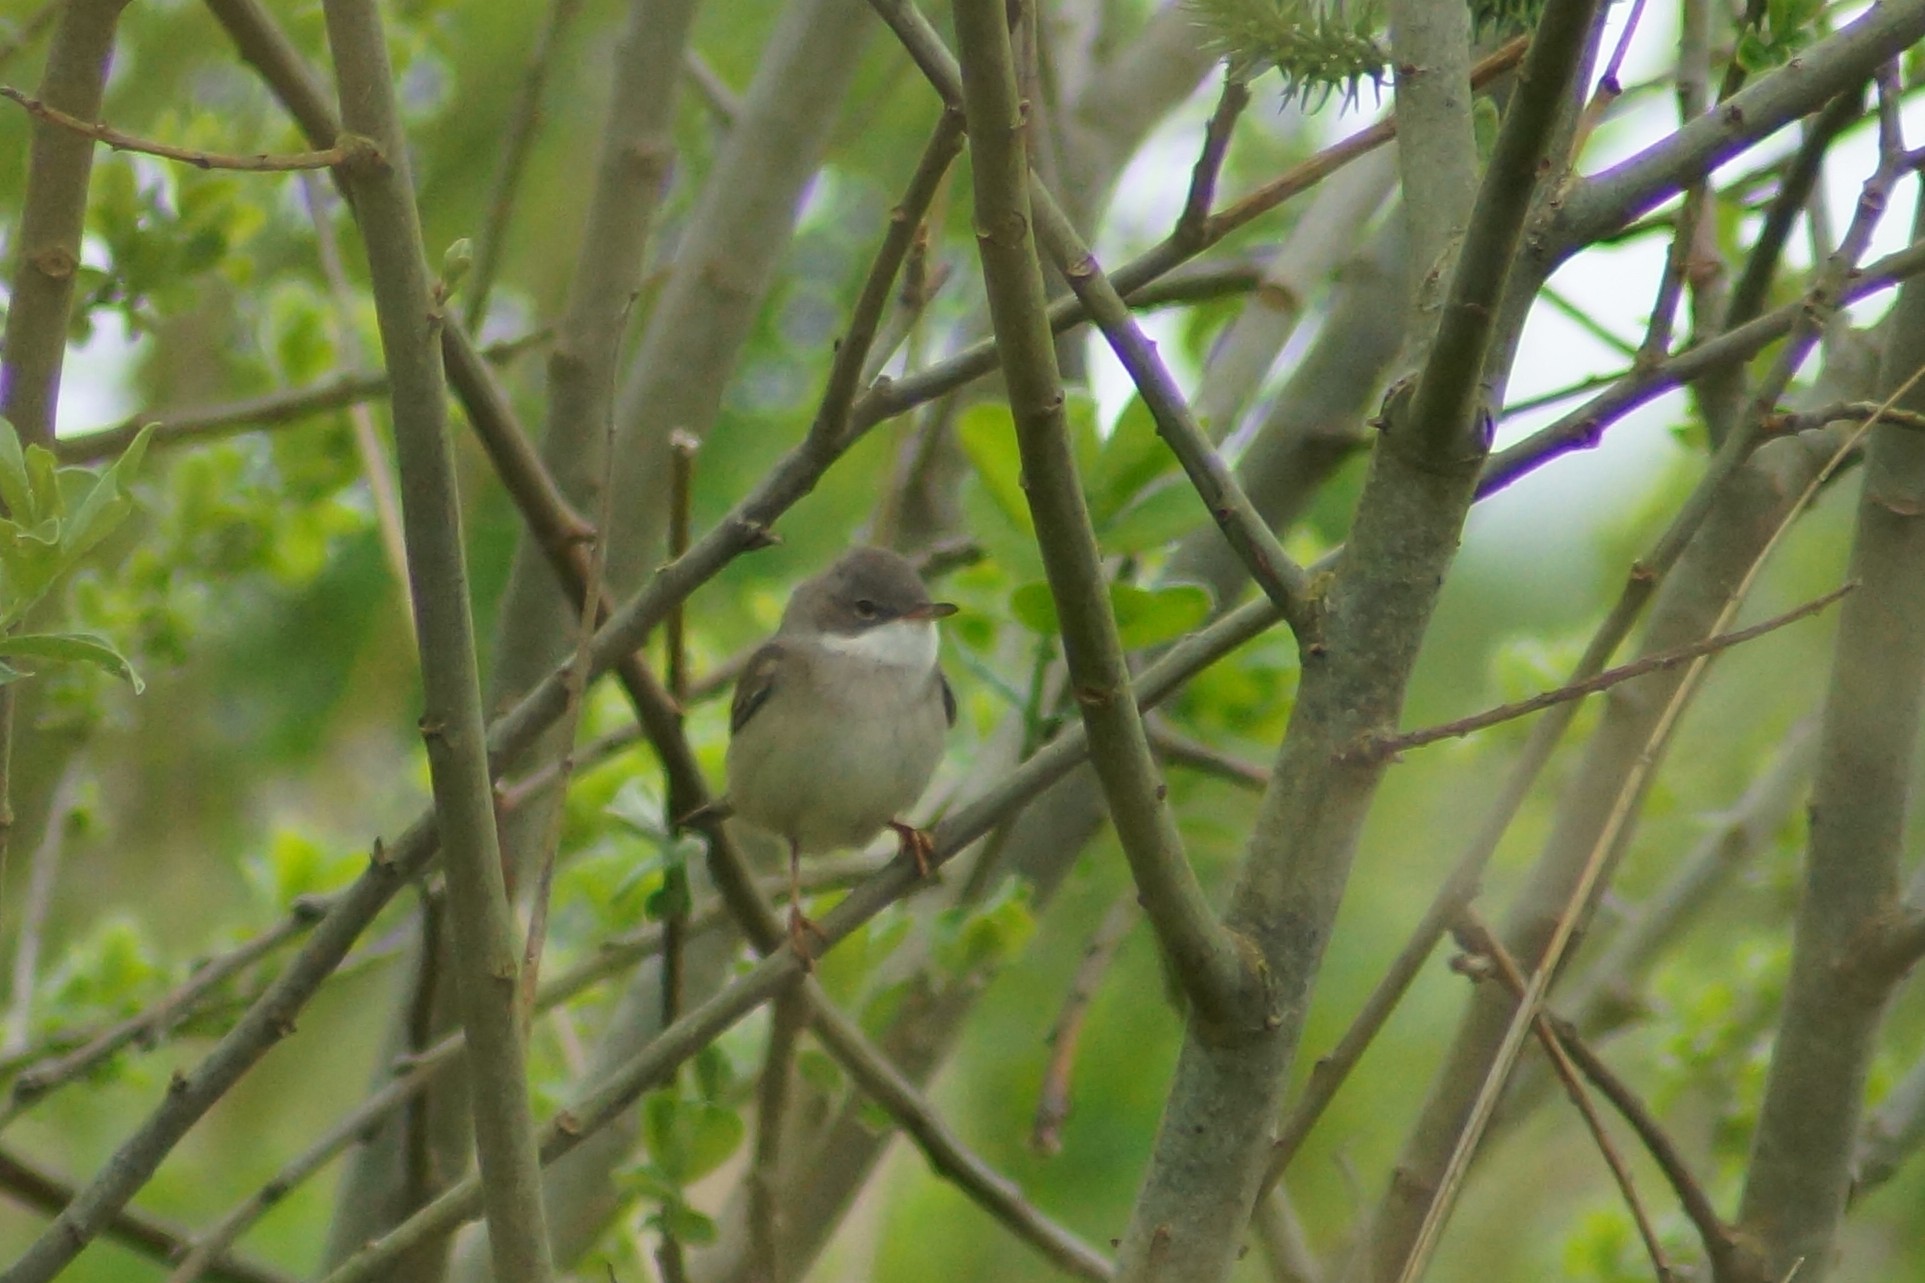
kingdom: Animalia
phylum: Chordata
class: Aves
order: Passeriformes
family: Sylviidae
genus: Sylvia
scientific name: Sylvia communis
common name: Common whitethroat
